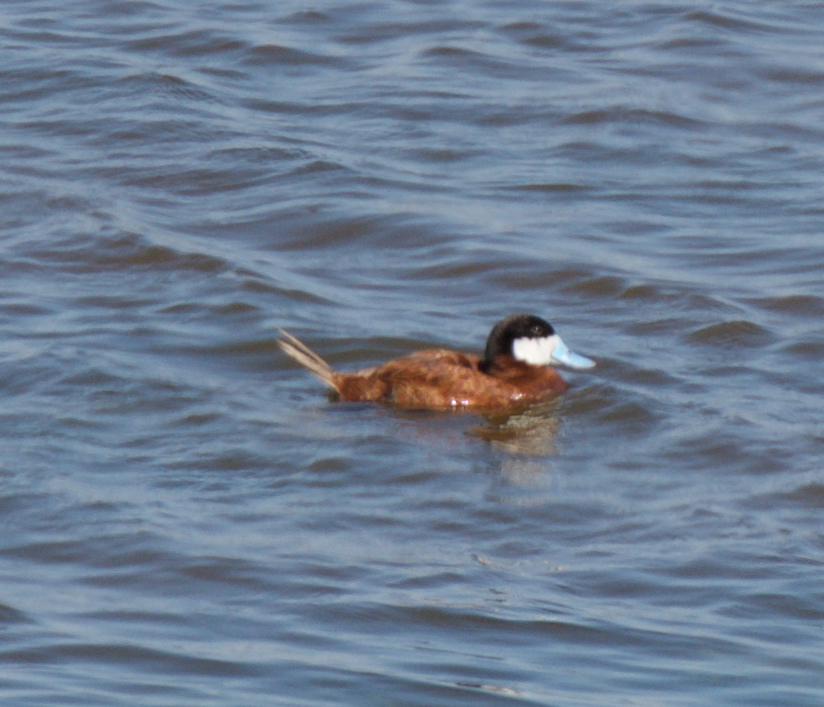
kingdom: Animalia
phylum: Chordata
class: Aves
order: Anseriformes
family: Anatidae
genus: Oxyura
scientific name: Oxyura jamaicensis
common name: Ruddy duck
